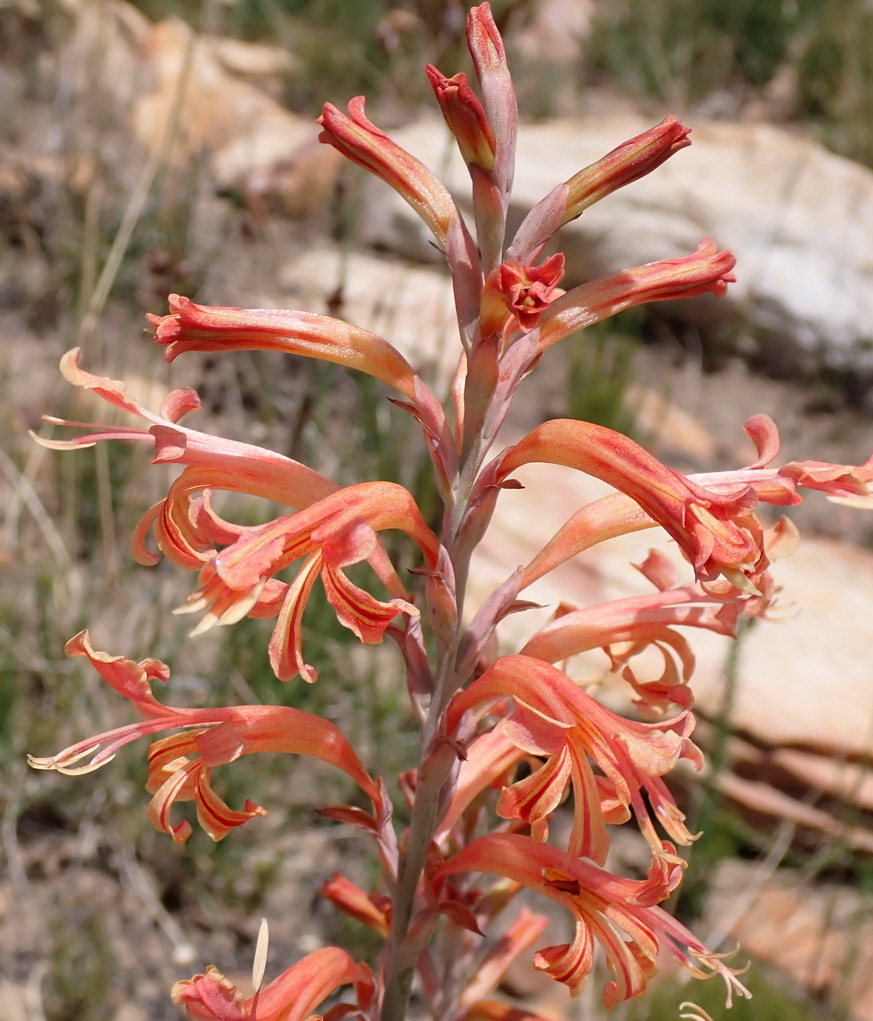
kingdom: Plantae
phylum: Tracheophyta
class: Liliopsida
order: Asparagales
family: Iridaceae
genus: Tritoniopsis
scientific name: Tritoniopsis antholyza
